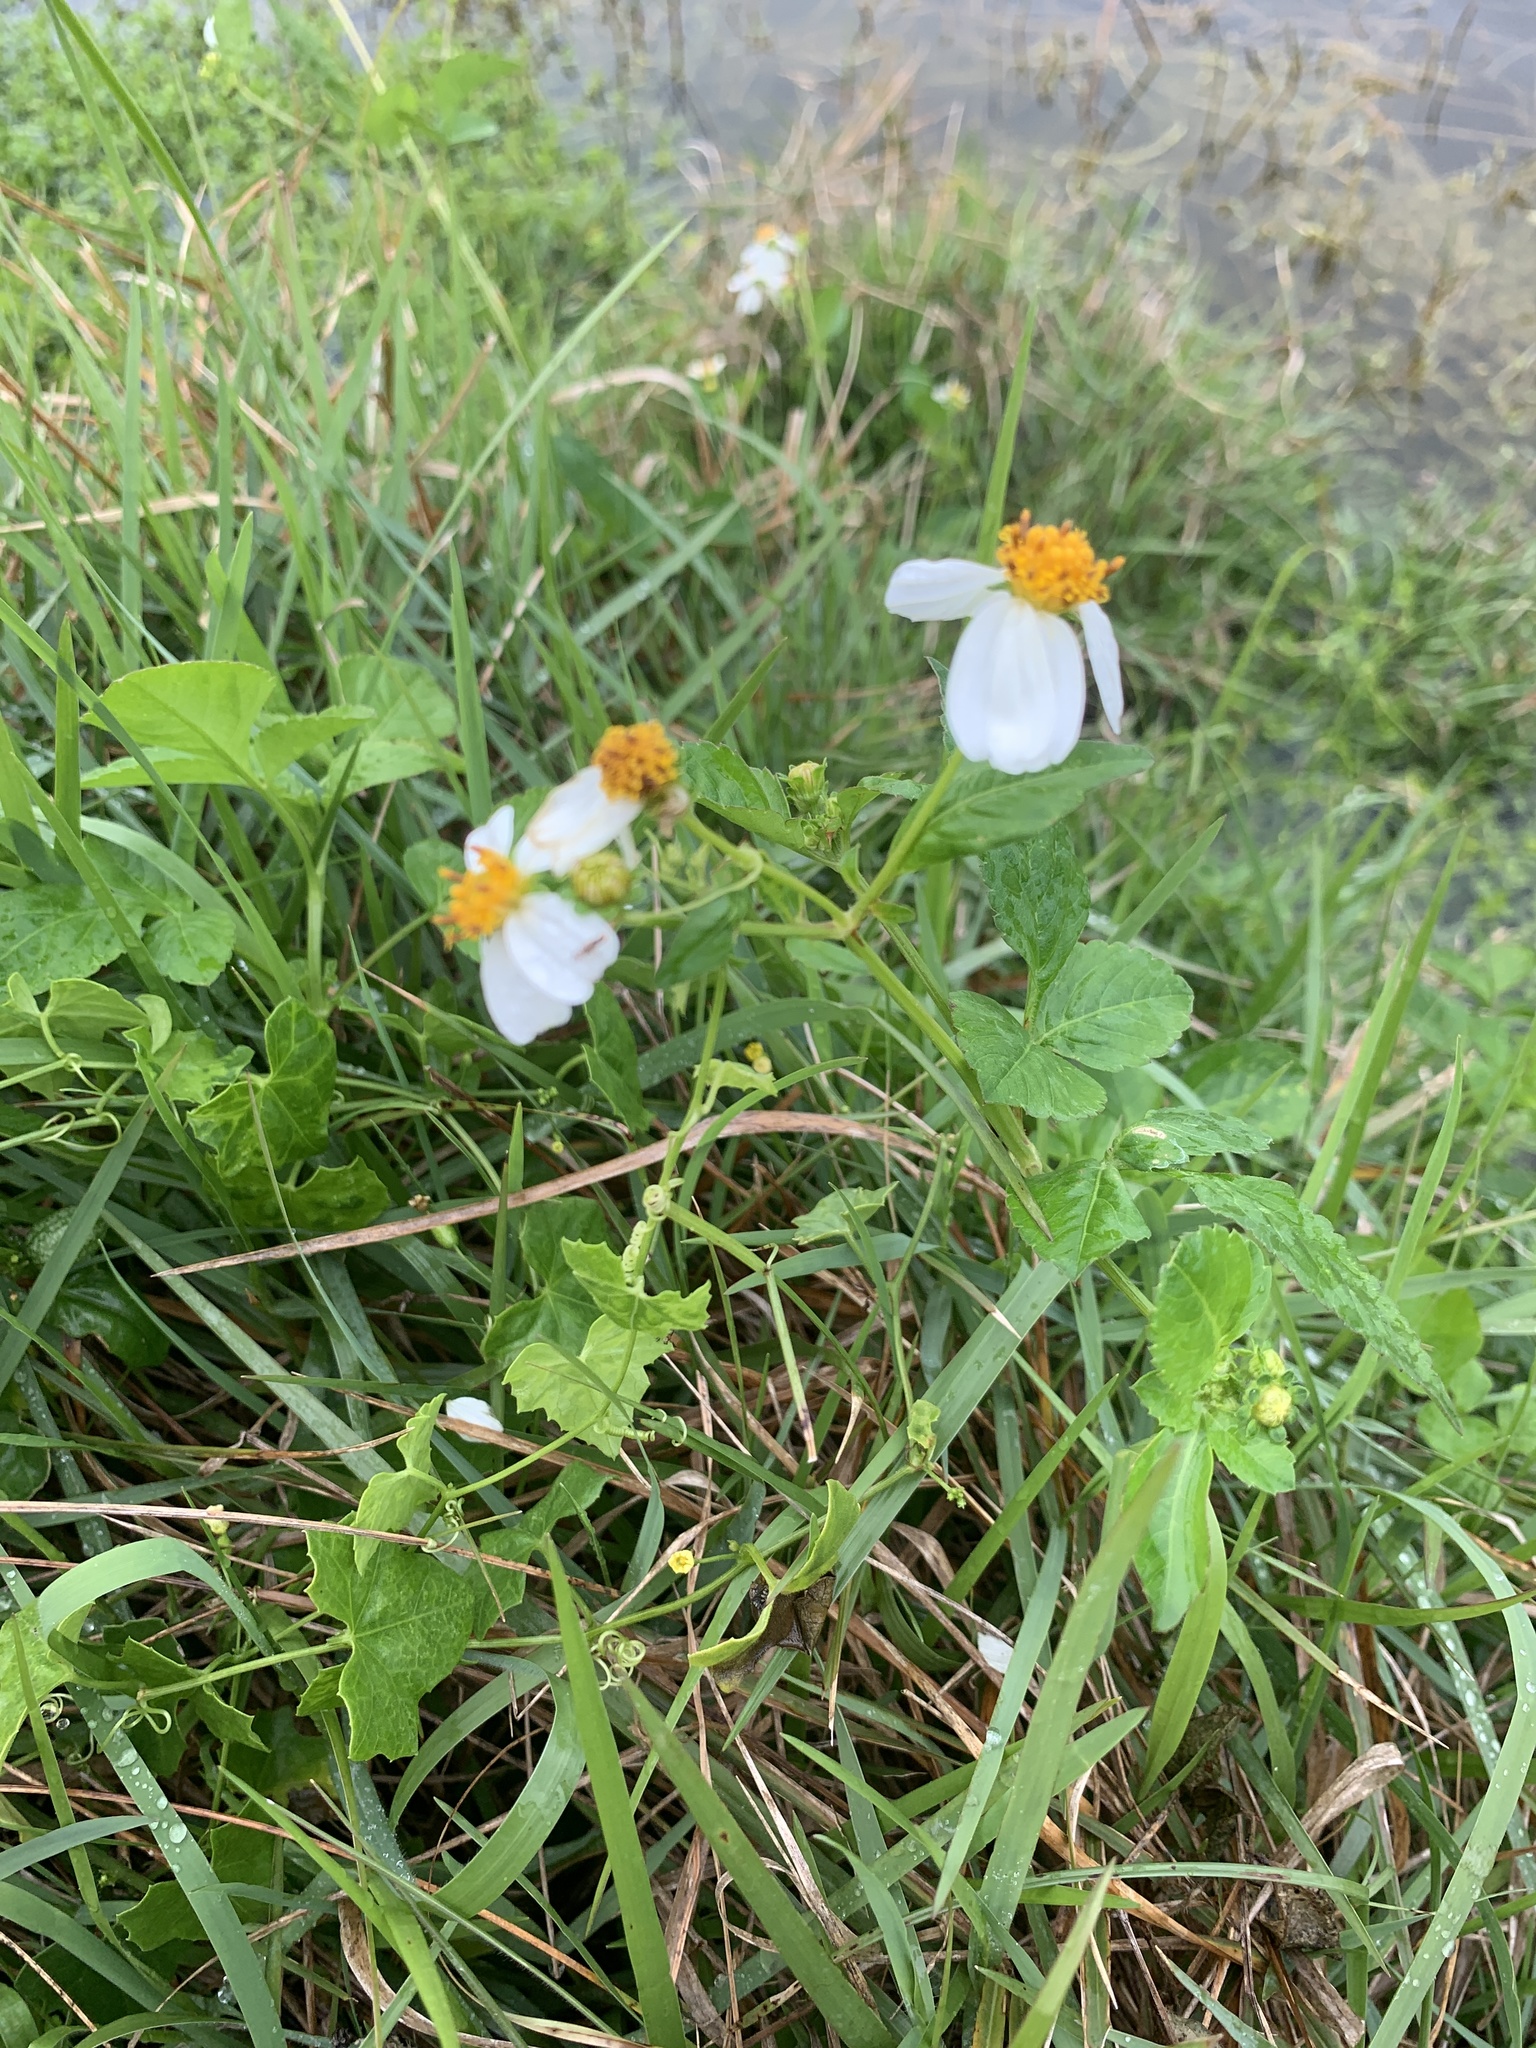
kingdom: Plantae
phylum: Tracheophyta
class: Magnoliopsida
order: Asterales
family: Asteraceae
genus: Bidens
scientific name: Bidens alba
